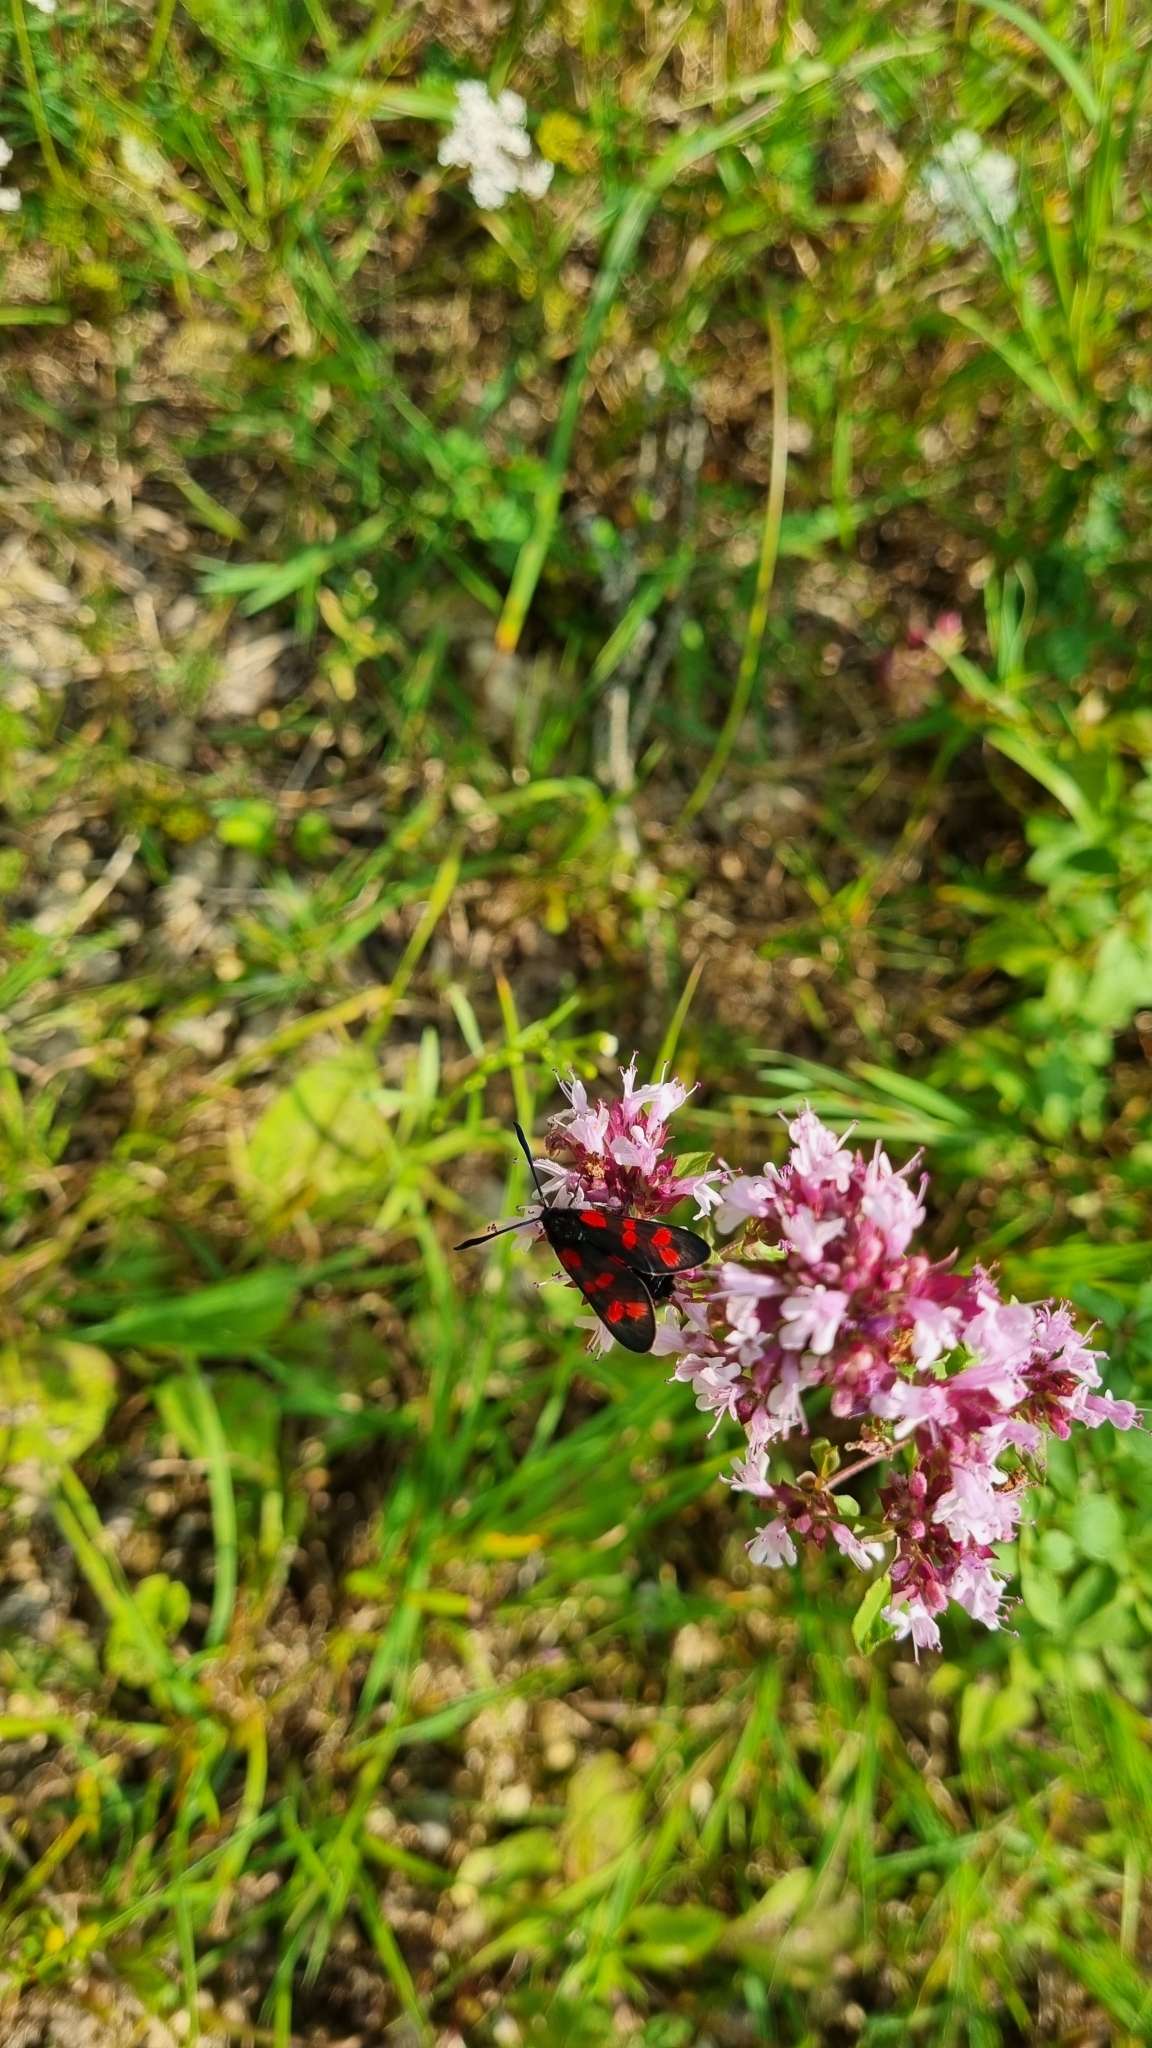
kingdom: Animalia
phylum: Arthropoda
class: Insecta
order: Lepidoptera
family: Zygaenidae
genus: Zygaena
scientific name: Zygaena filipendulae
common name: Six-spot burnet
